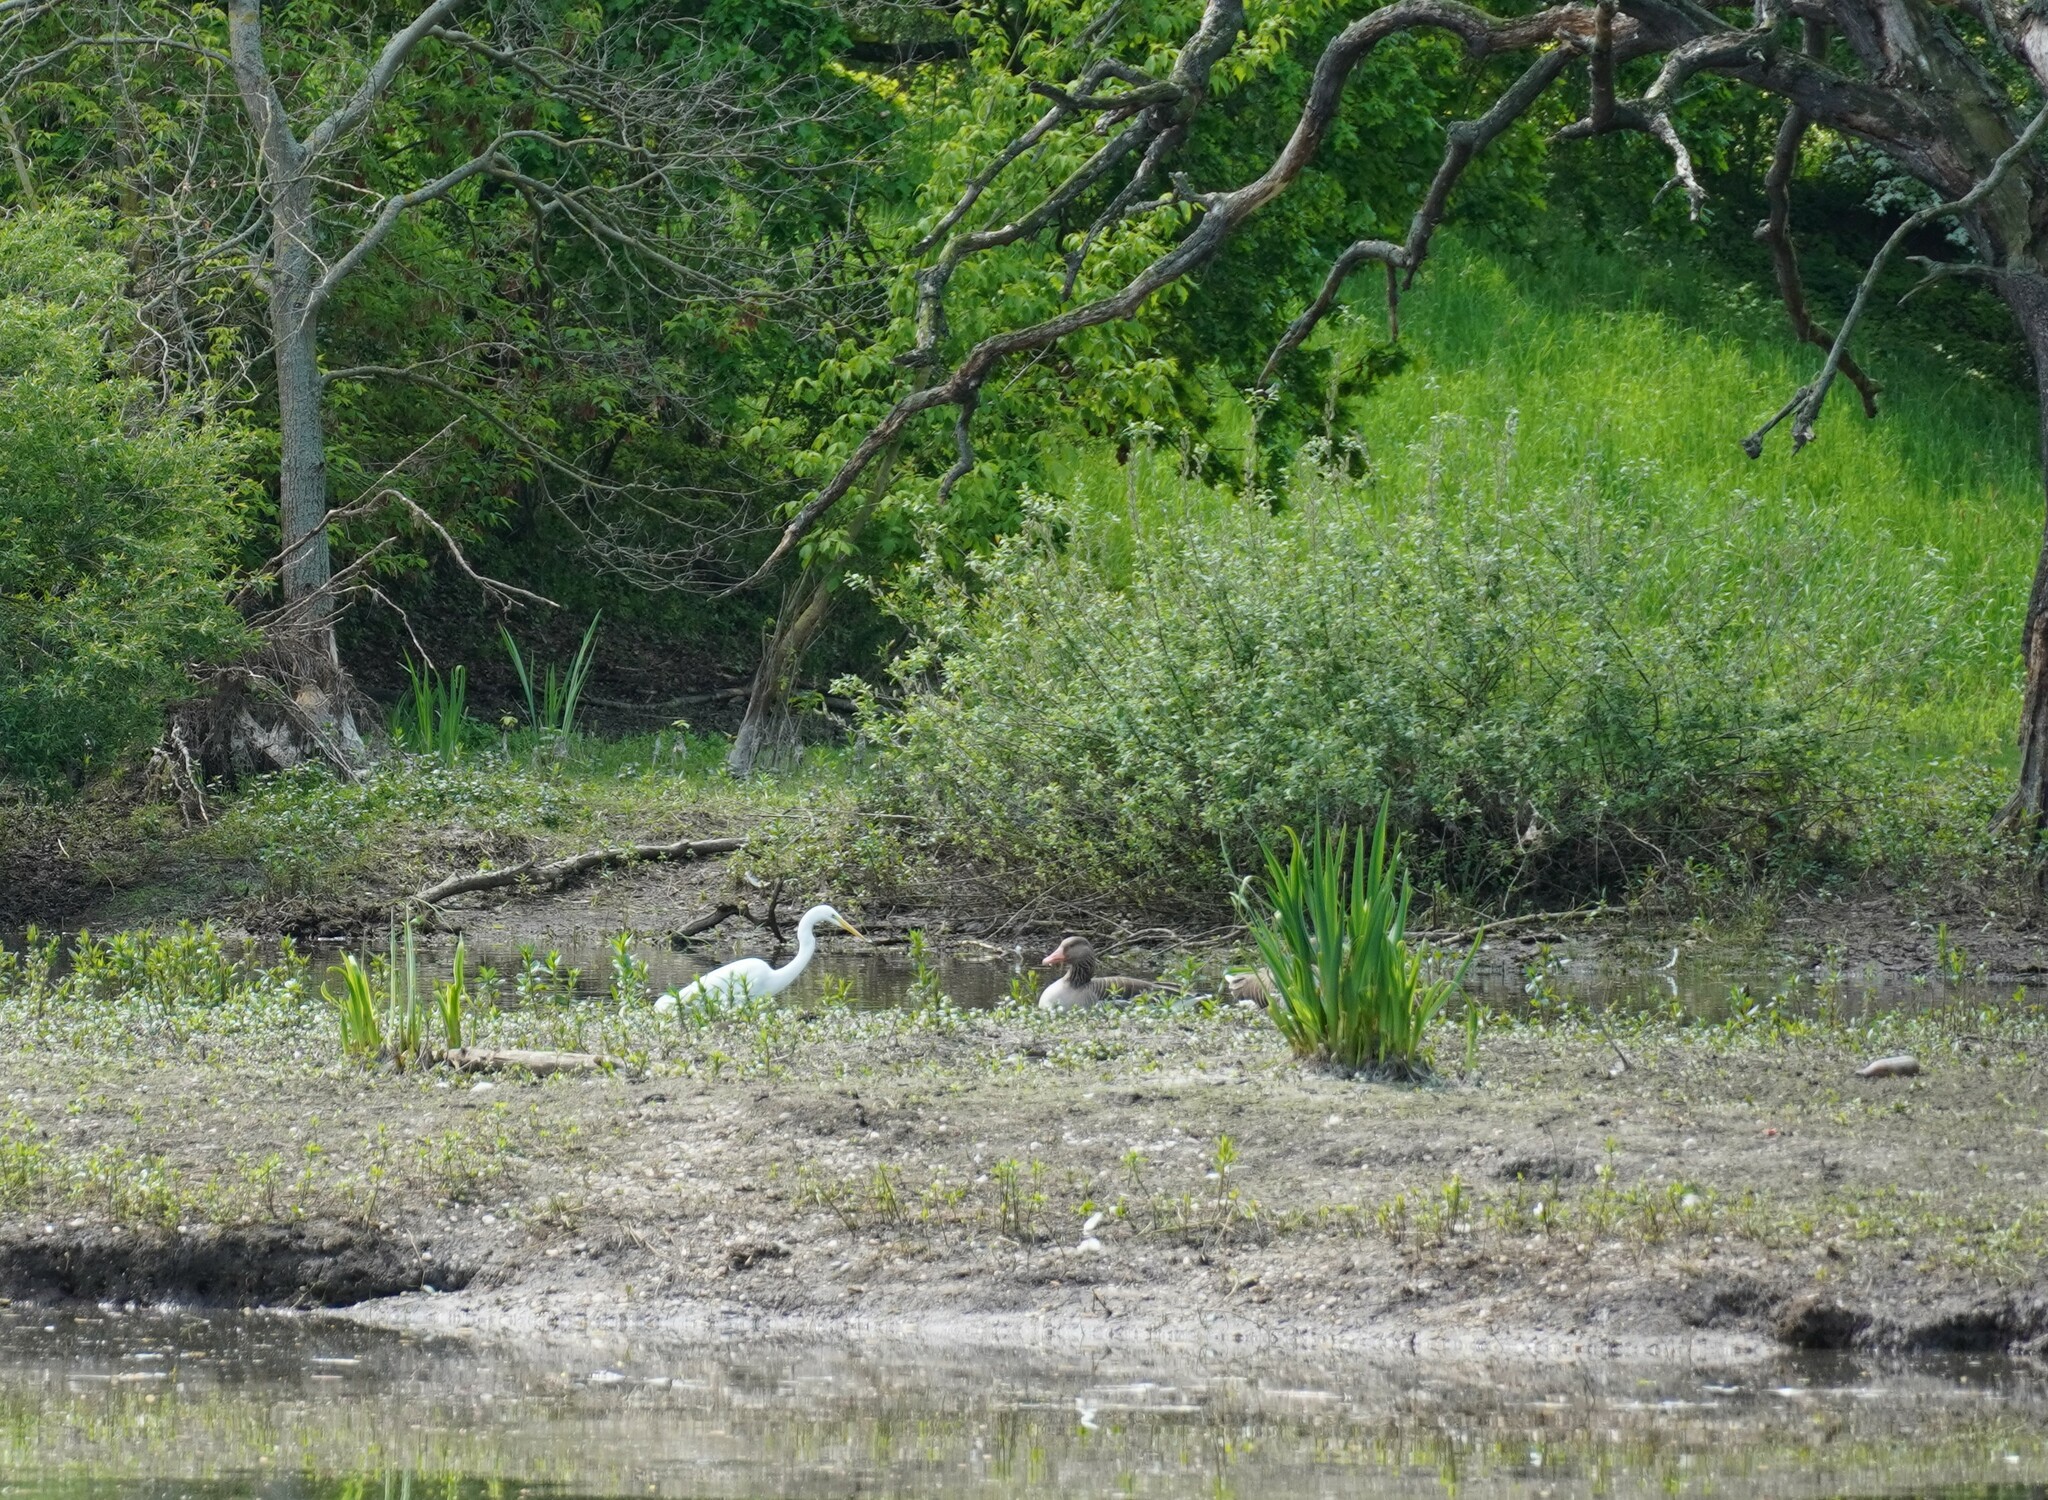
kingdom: Animalia
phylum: Chordata
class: Aves
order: Anseriformes
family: Anatidae
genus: Anser
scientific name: Anser anser
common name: Greylag goose
